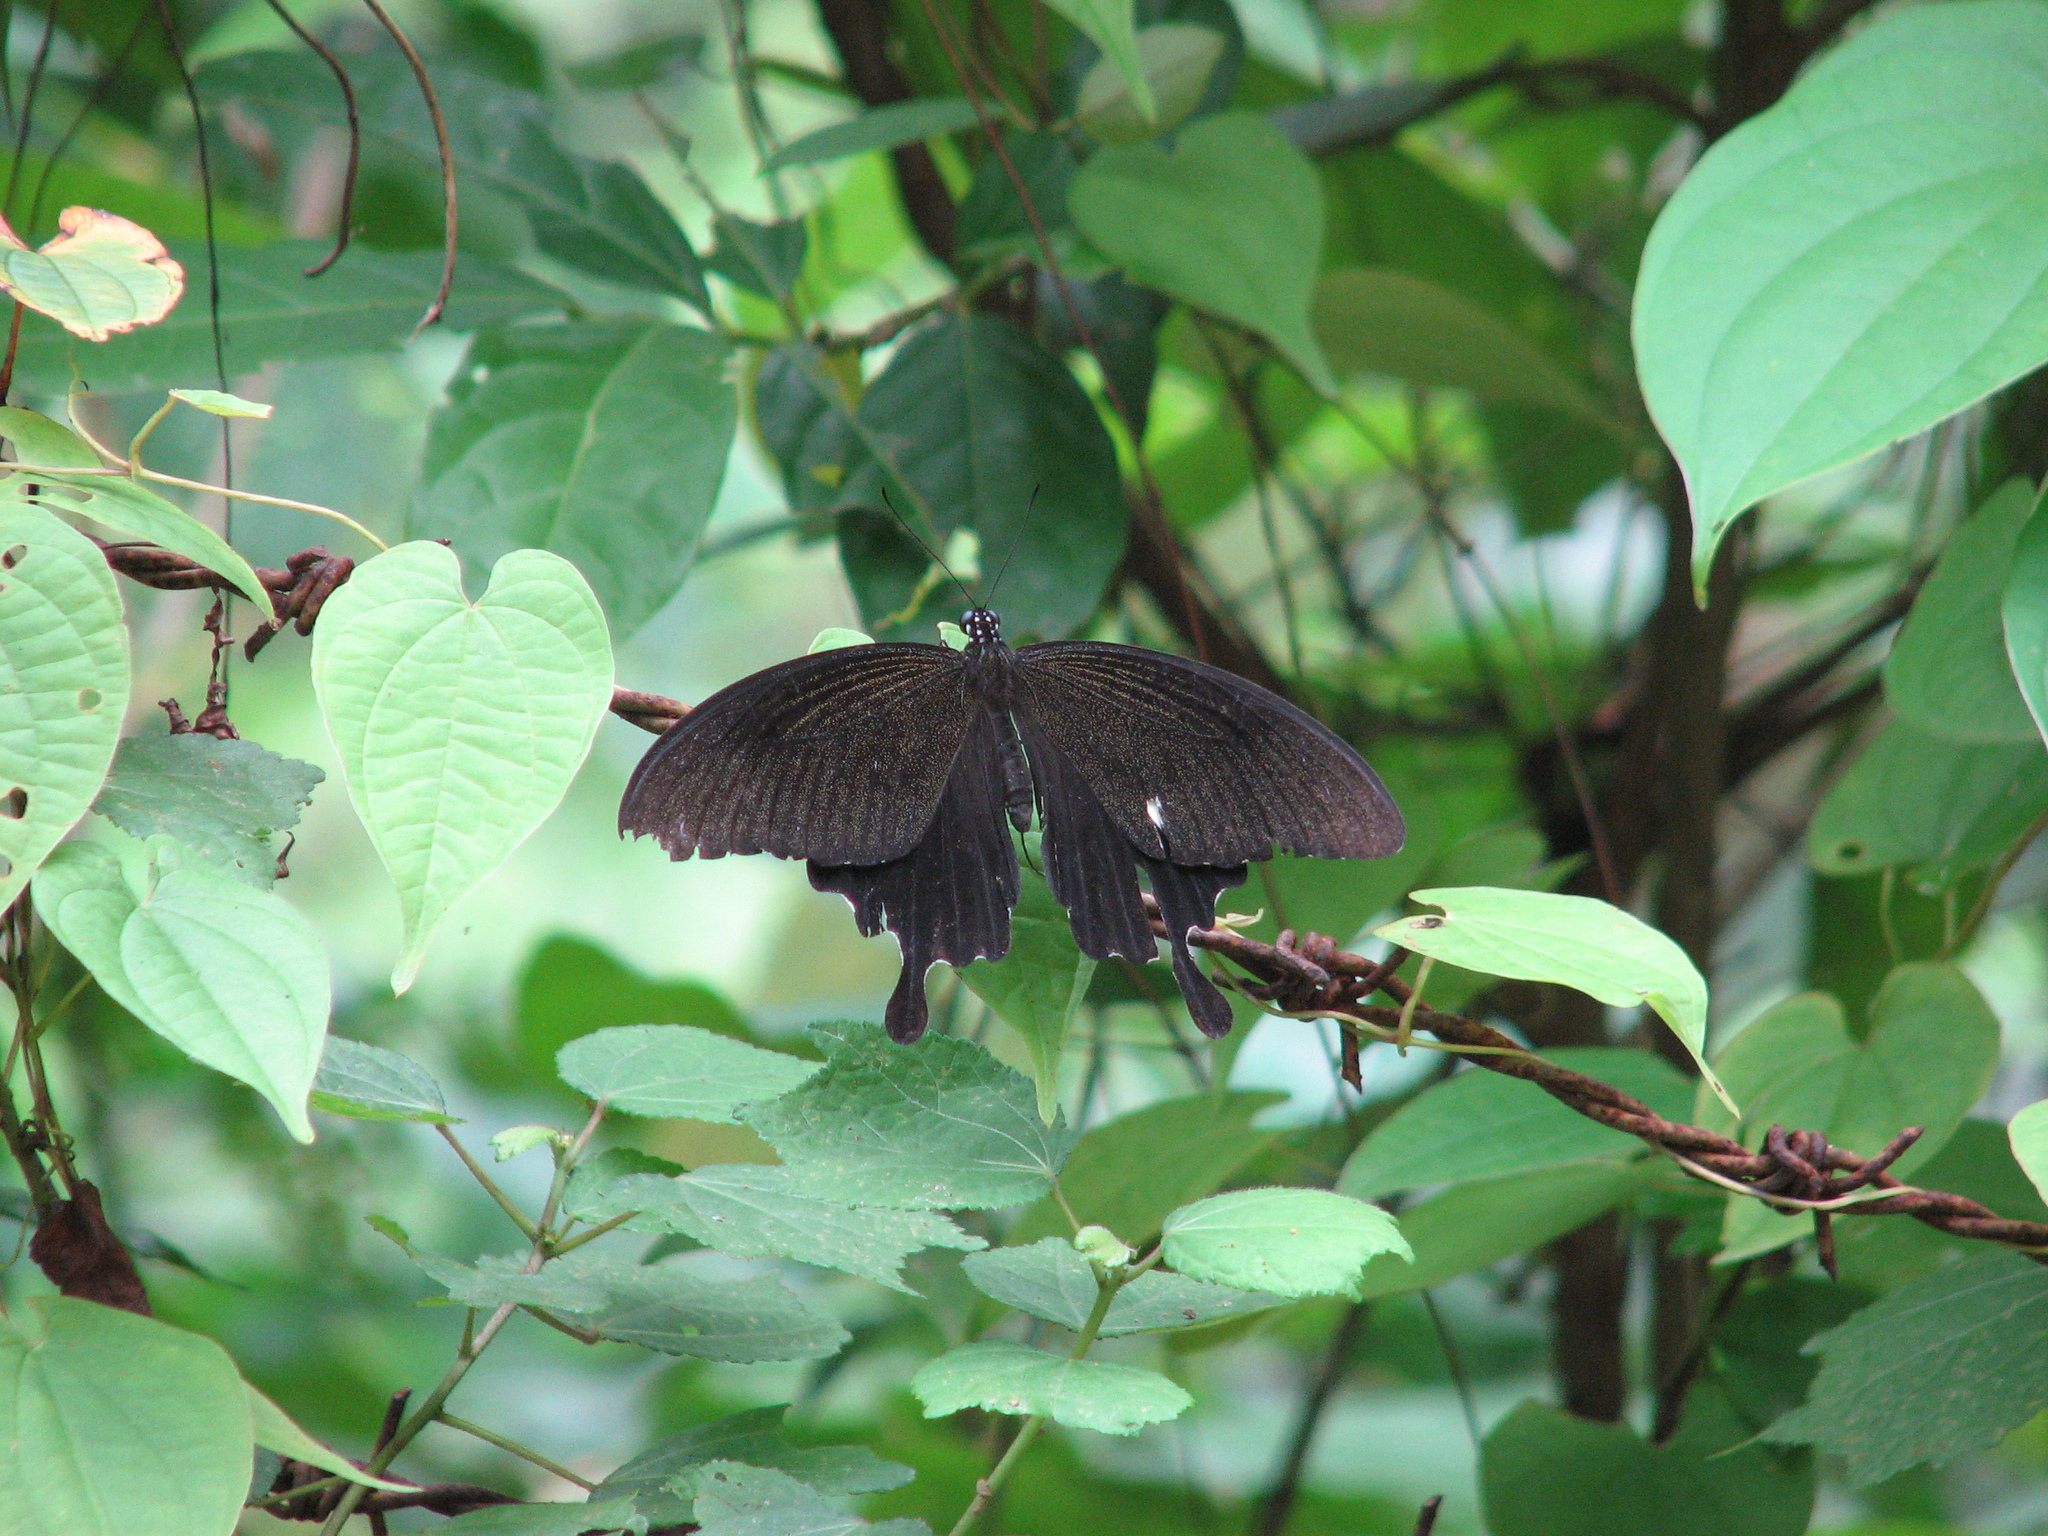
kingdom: Animalia
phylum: Arthropoda
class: Insecta
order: Lepidoptera
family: Papilionidae
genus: Papilio
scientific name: Papilio nephelus
